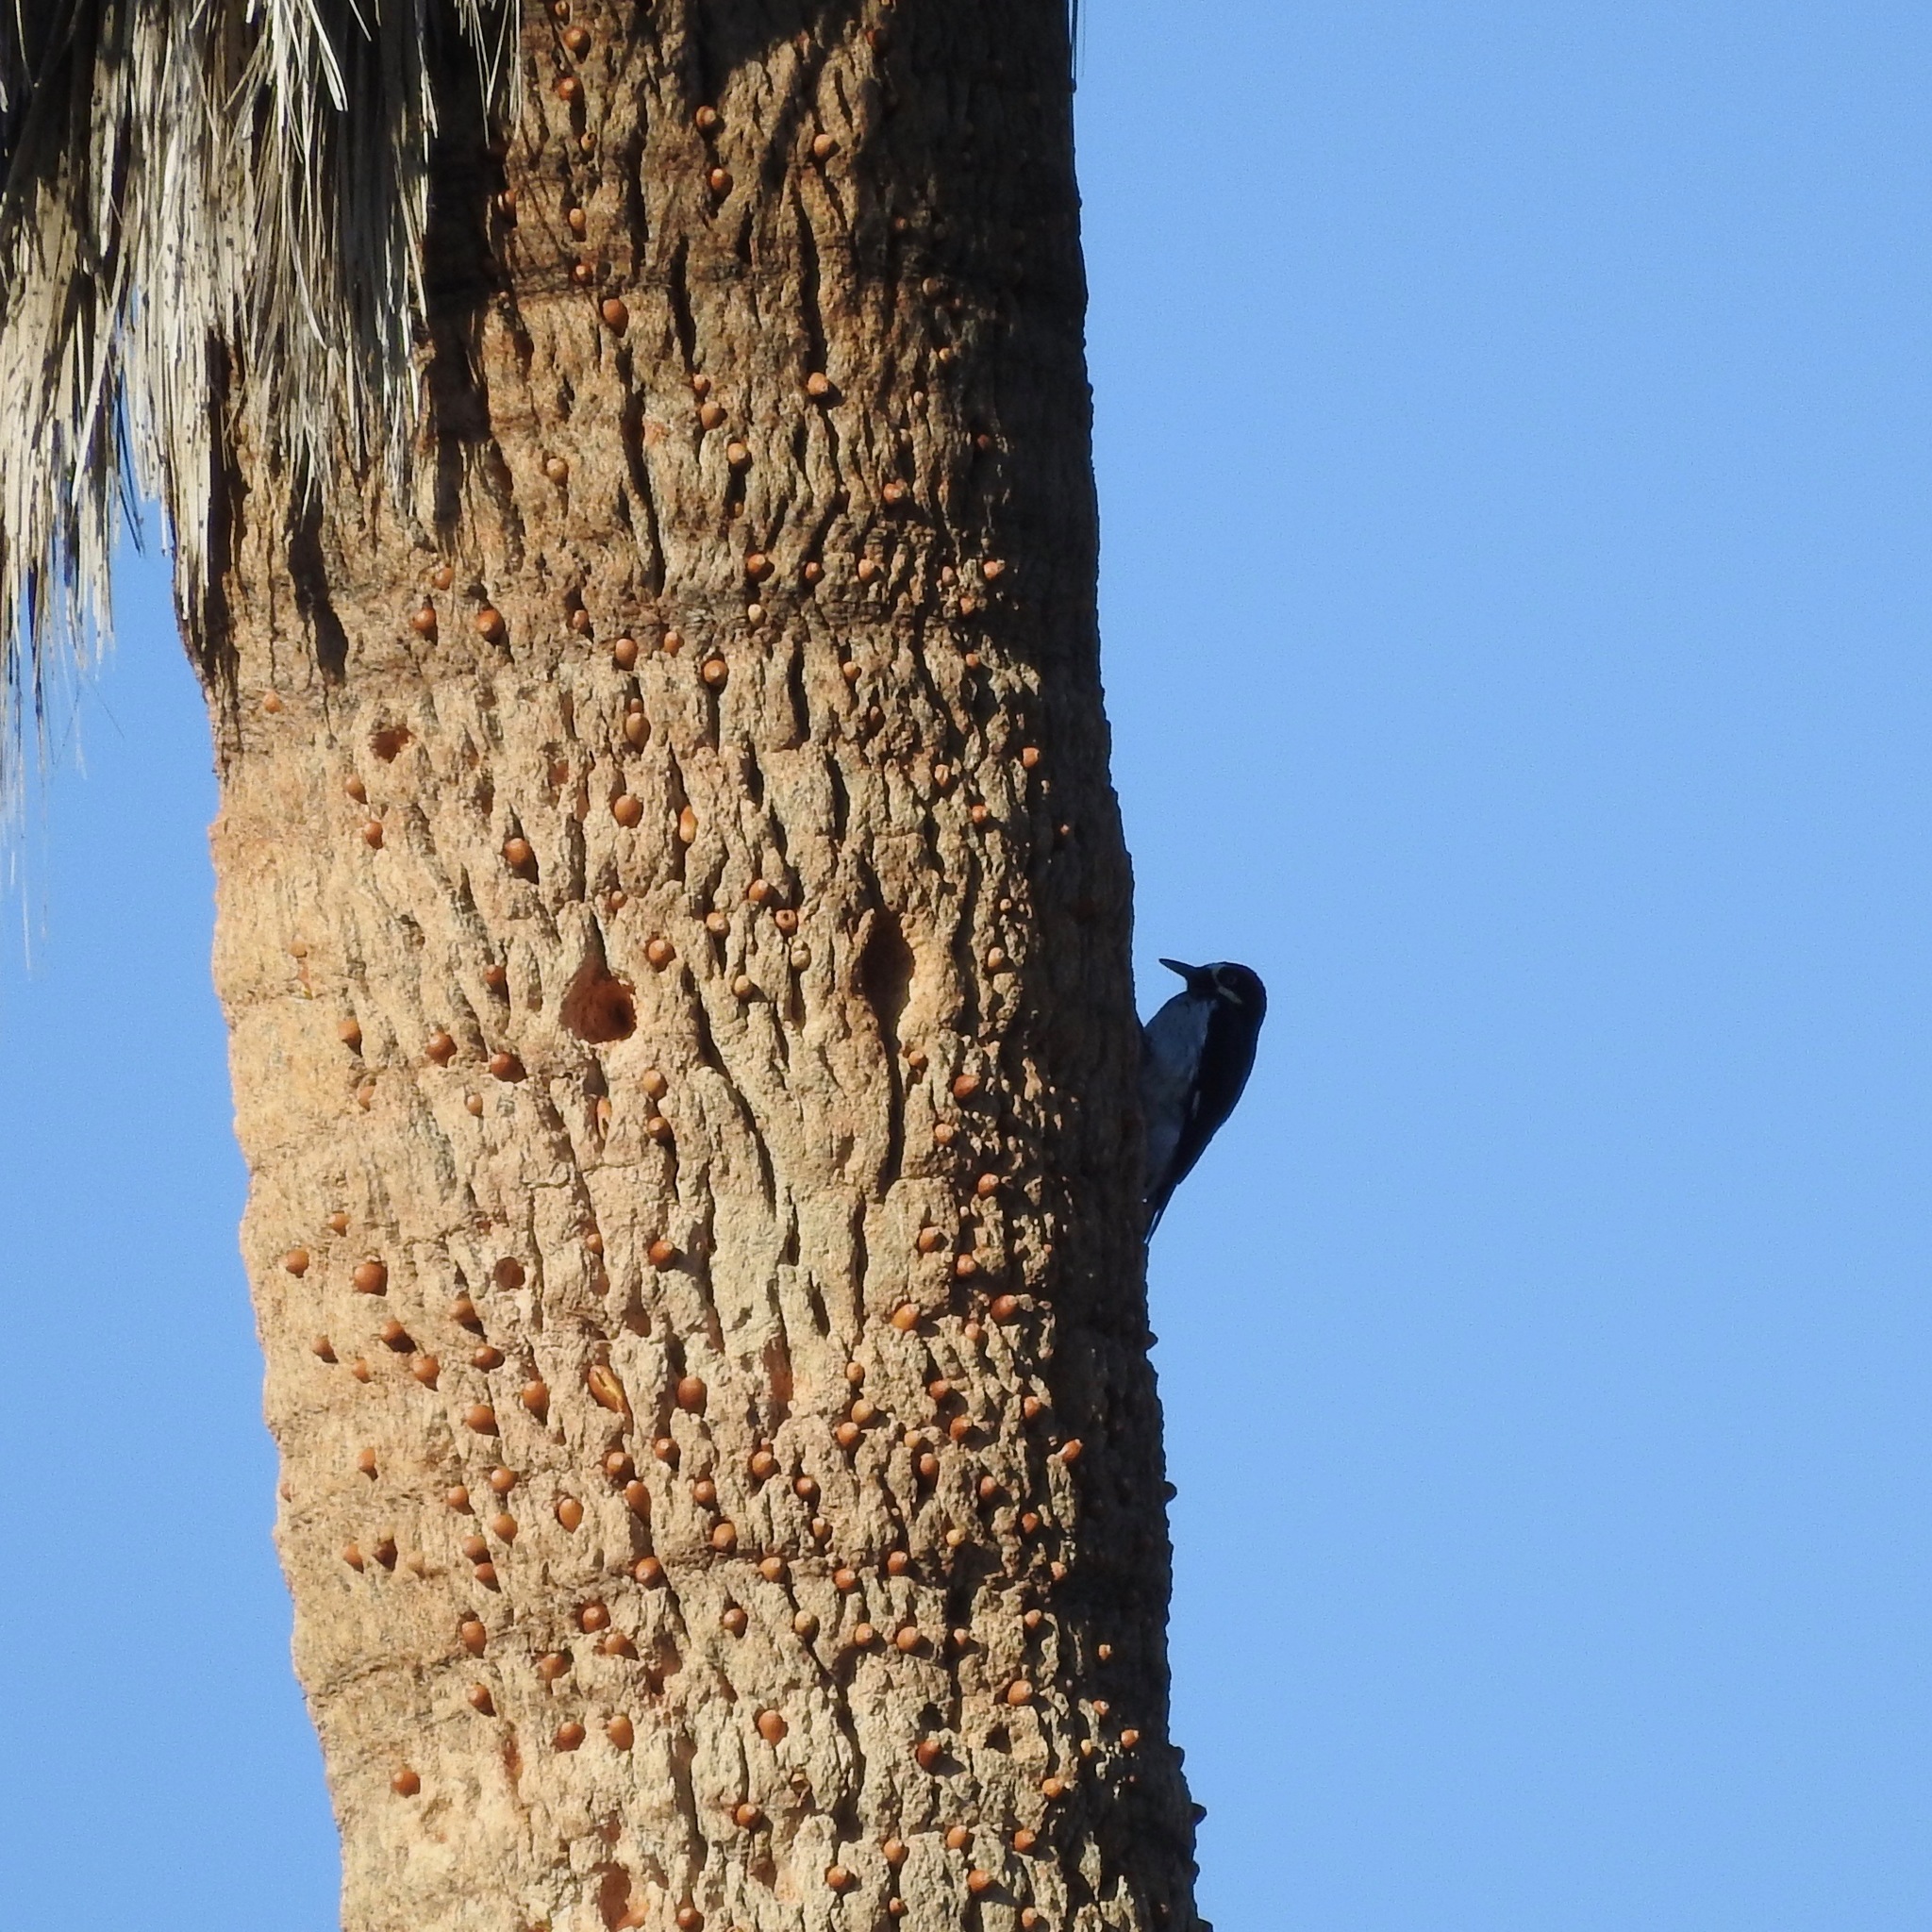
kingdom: Animalia
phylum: Chordata
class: Aves
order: Piciformes
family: Picidae
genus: Melanerpes
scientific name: Melanerpes formicivorus
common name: Acorn woodpecker
